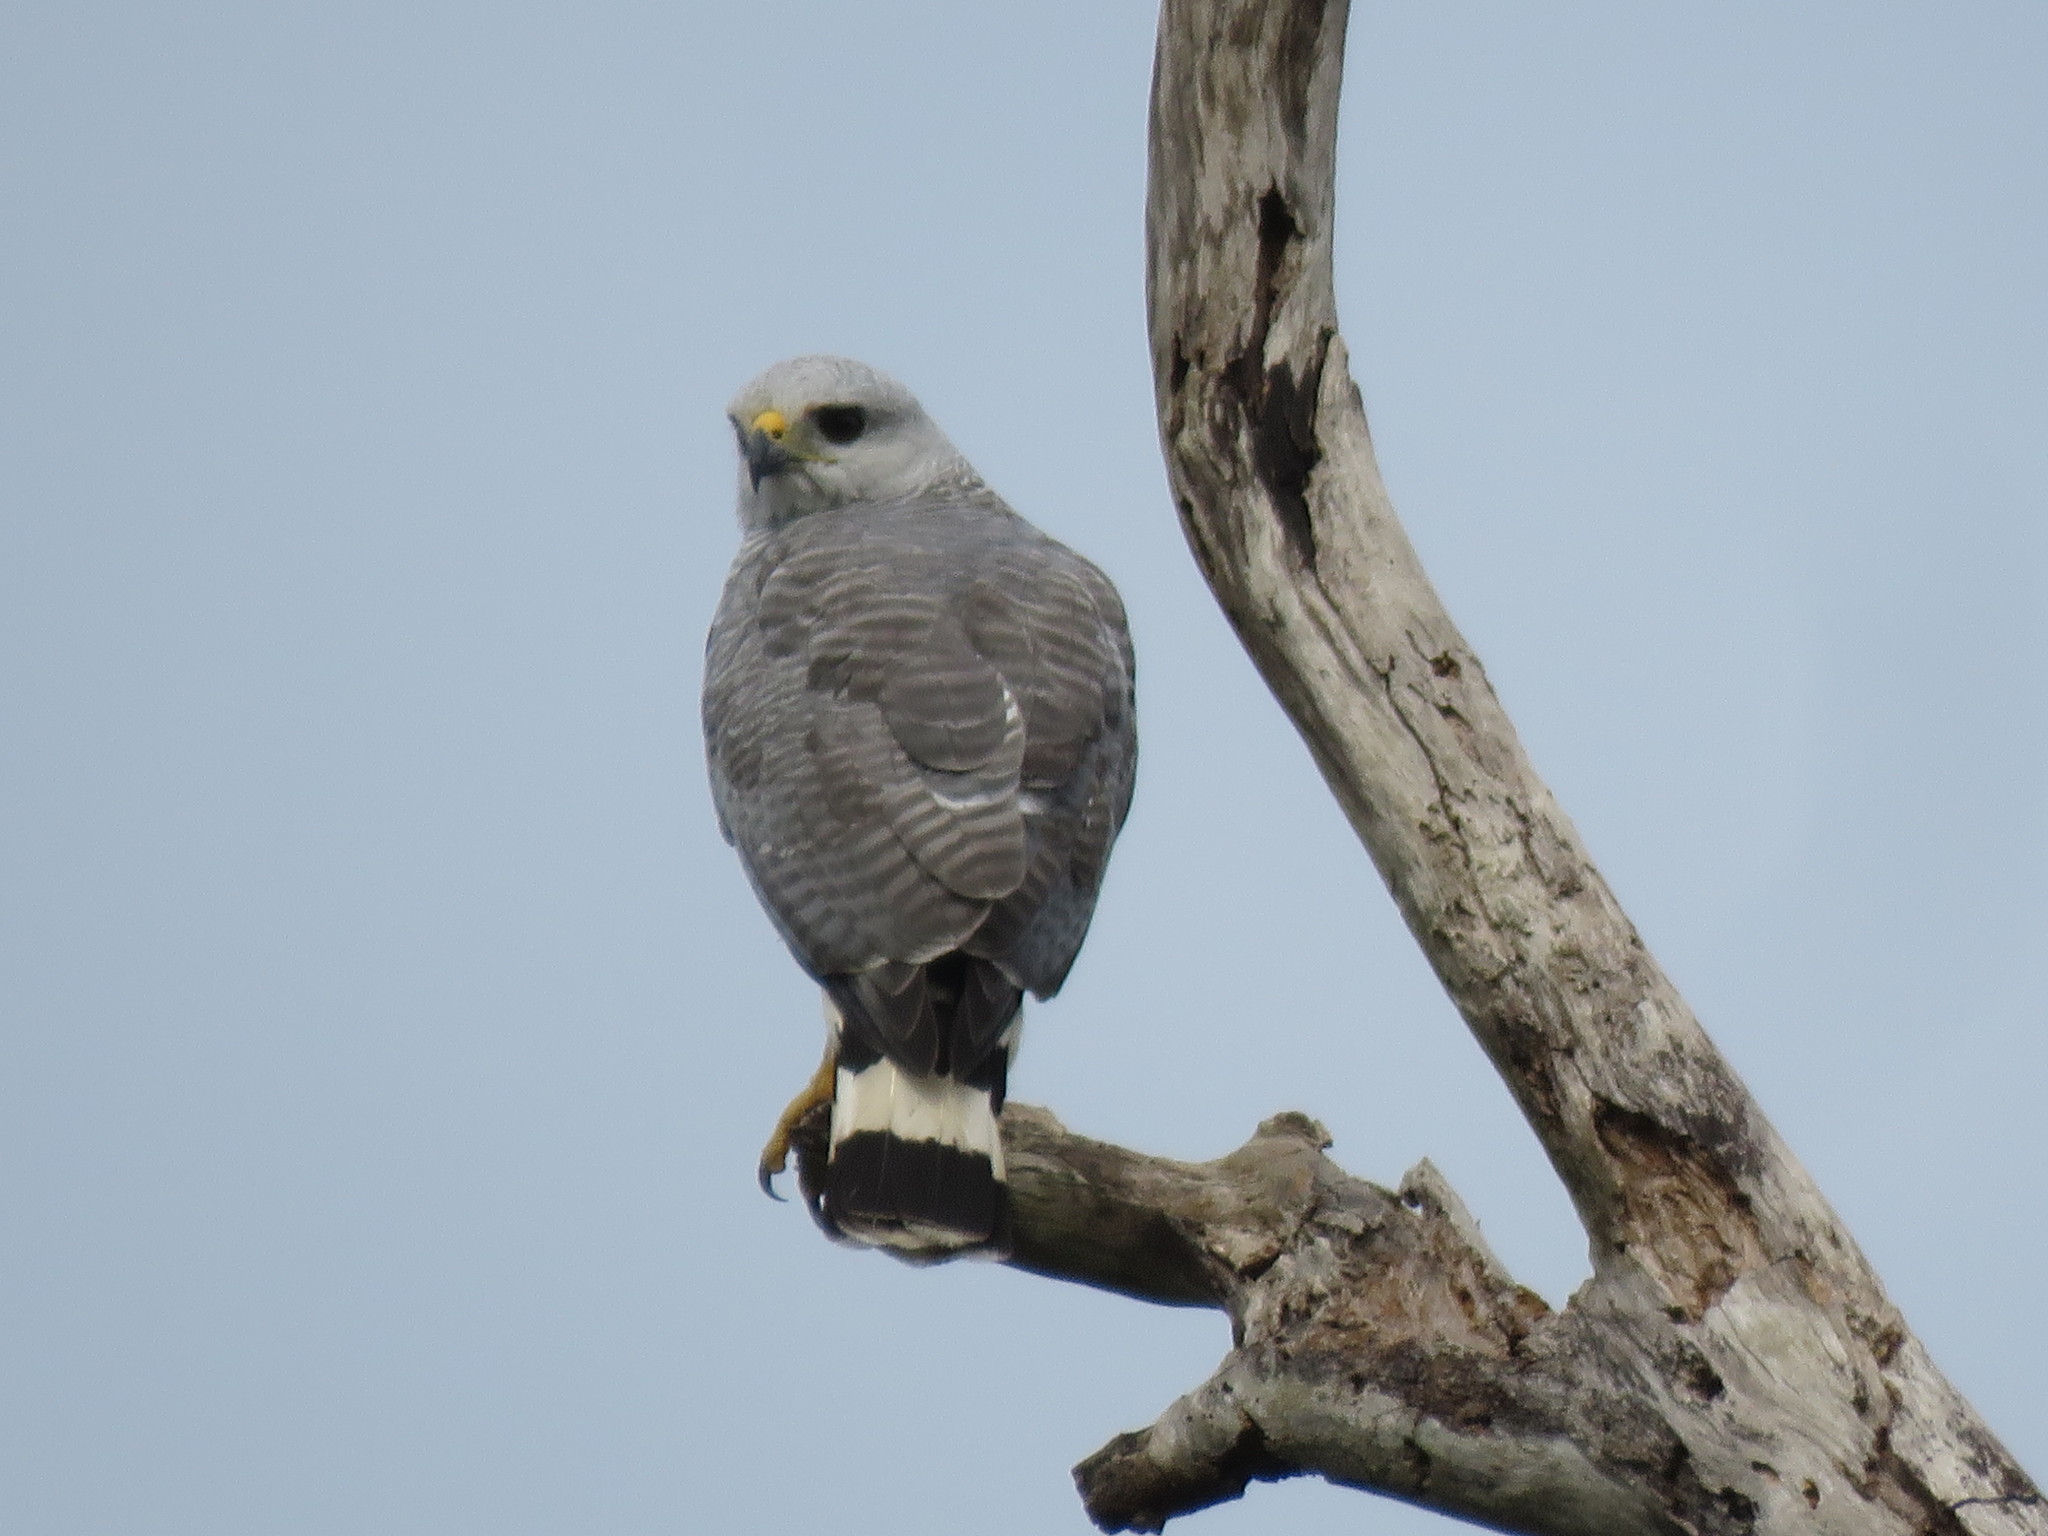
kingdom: Animalia
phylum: Chordata
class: Aves
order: Accipitriformes
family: Accipitridae
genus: Buteo
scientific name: Buteo nitidus
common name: Grey-lined hawk
